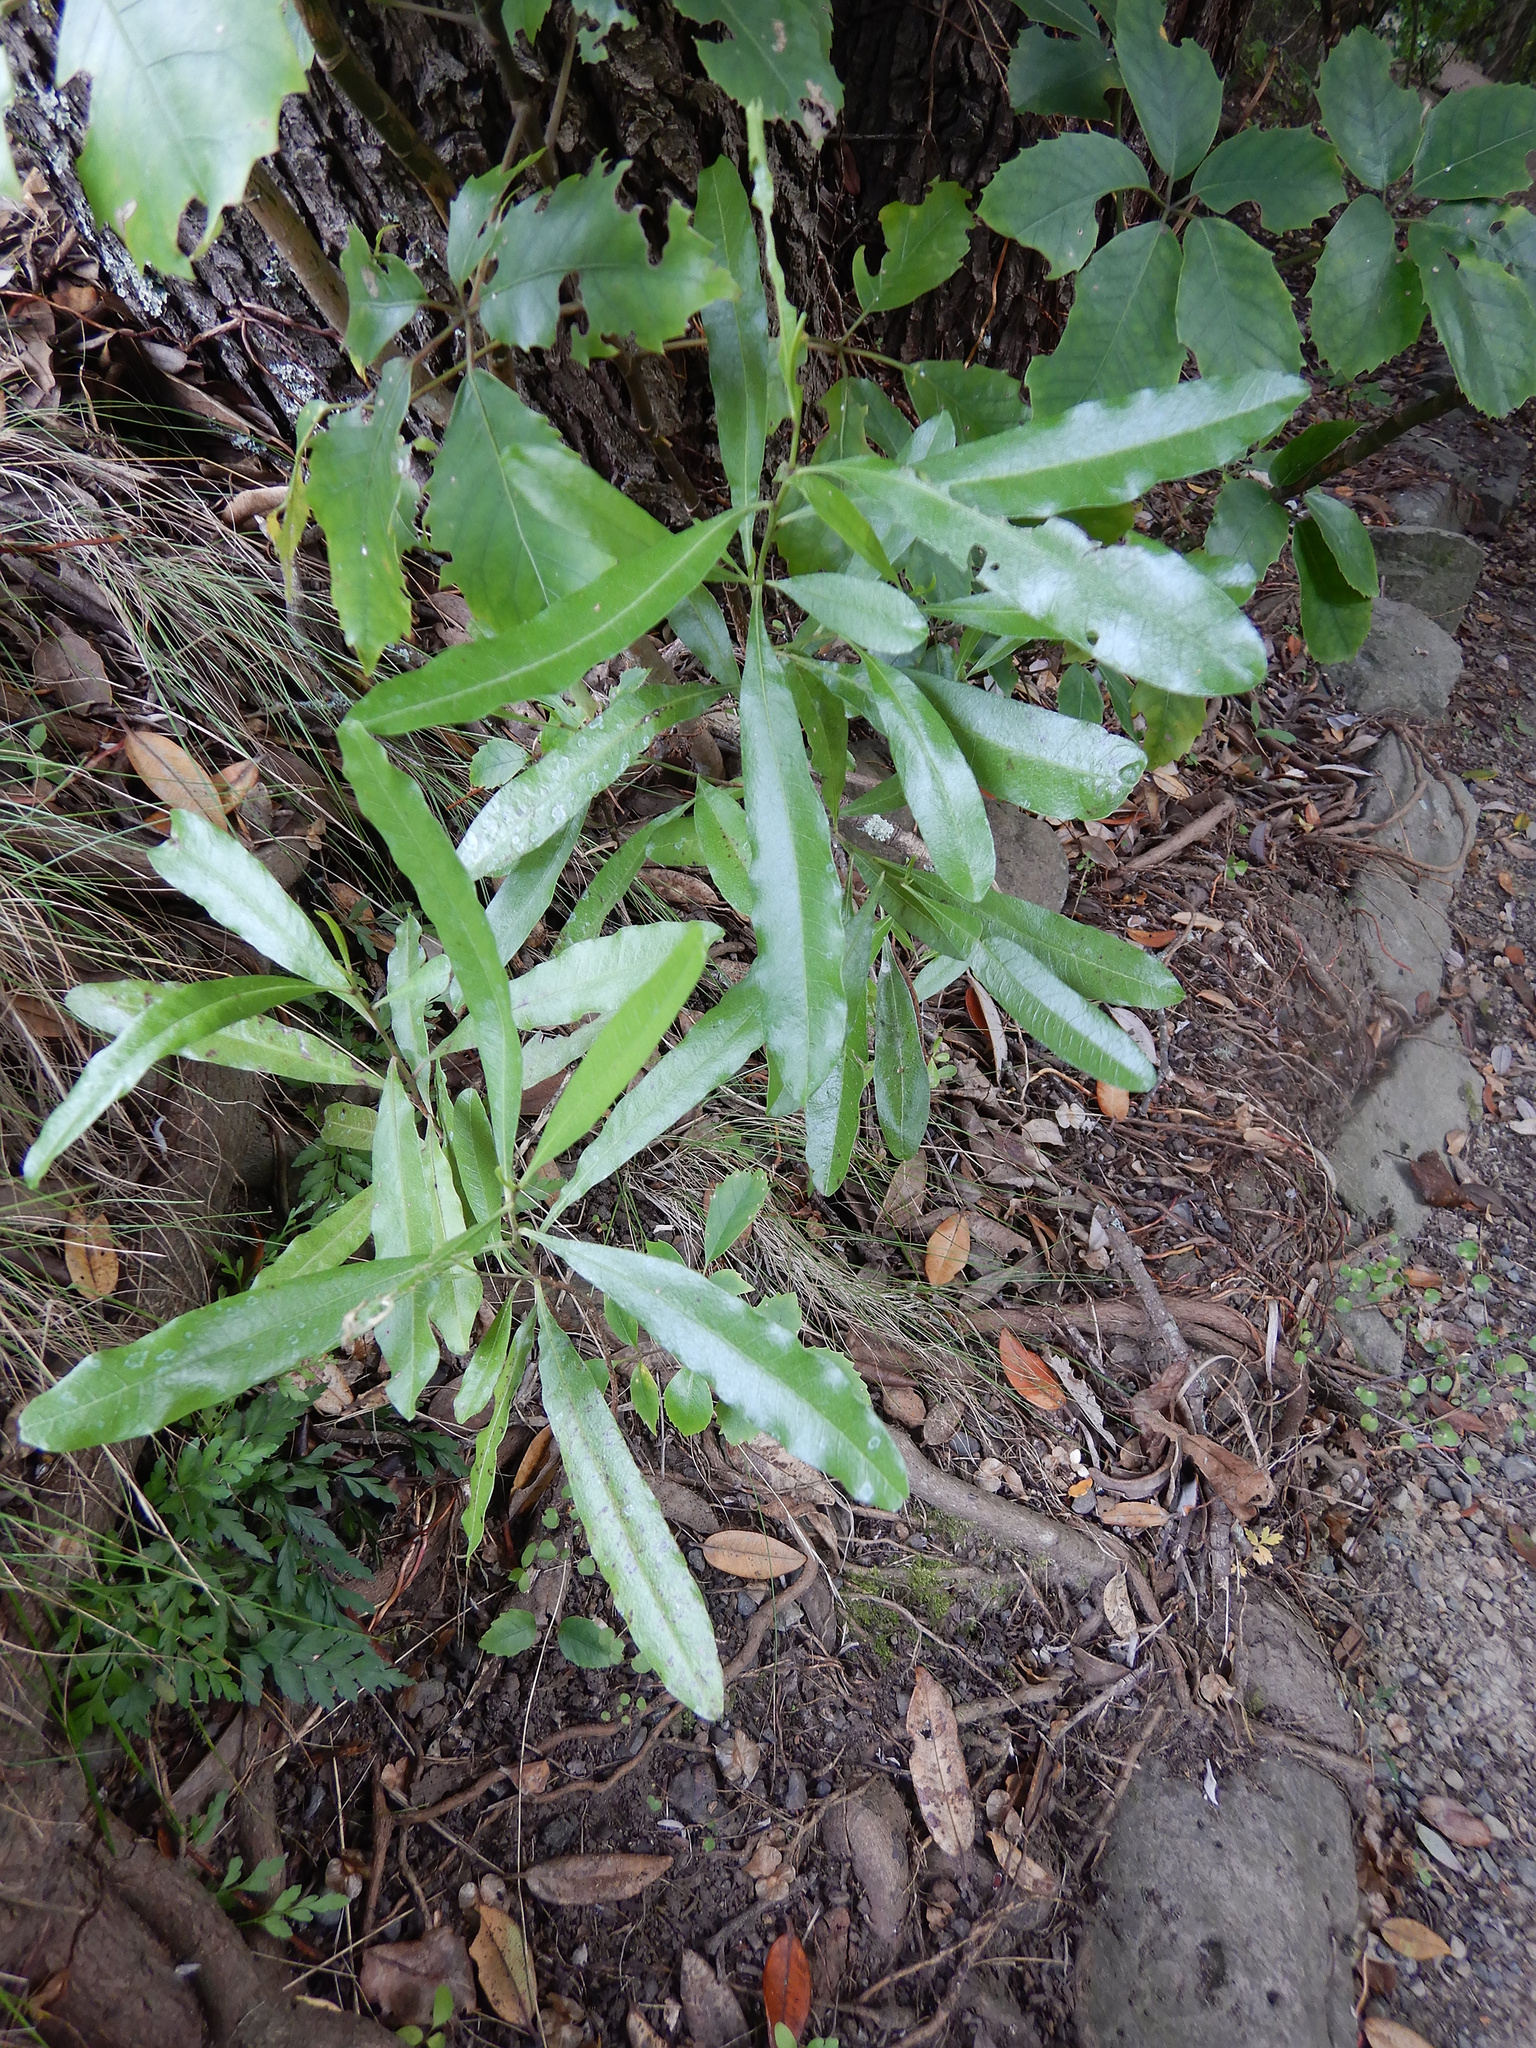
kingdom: Plantae
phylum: Tracheophyta
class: Magnoliopsida
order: Sapindales
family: Sapindaceae
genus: Dodonaea
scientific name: Dodonaea viscosa
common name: Hopbush
